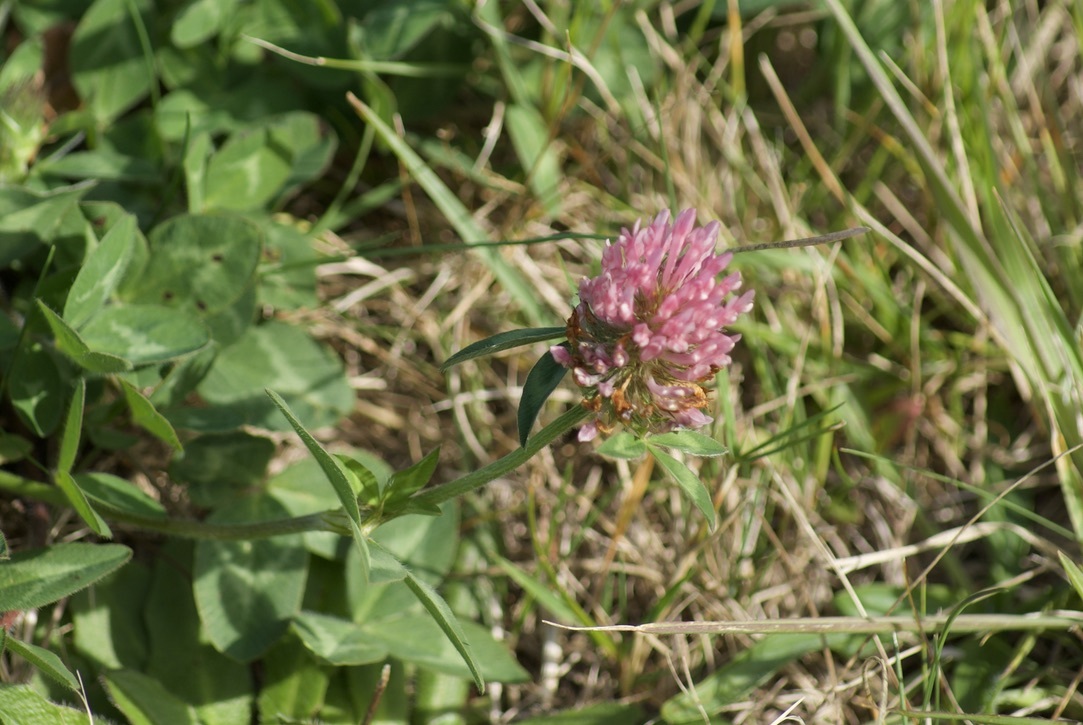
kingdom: Plantae
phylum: Tracheophyta
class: Magnoliopsida
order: Fabales
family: Fabaceae
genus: Trifolium
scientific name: Trifolium pratense
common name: Red clover
